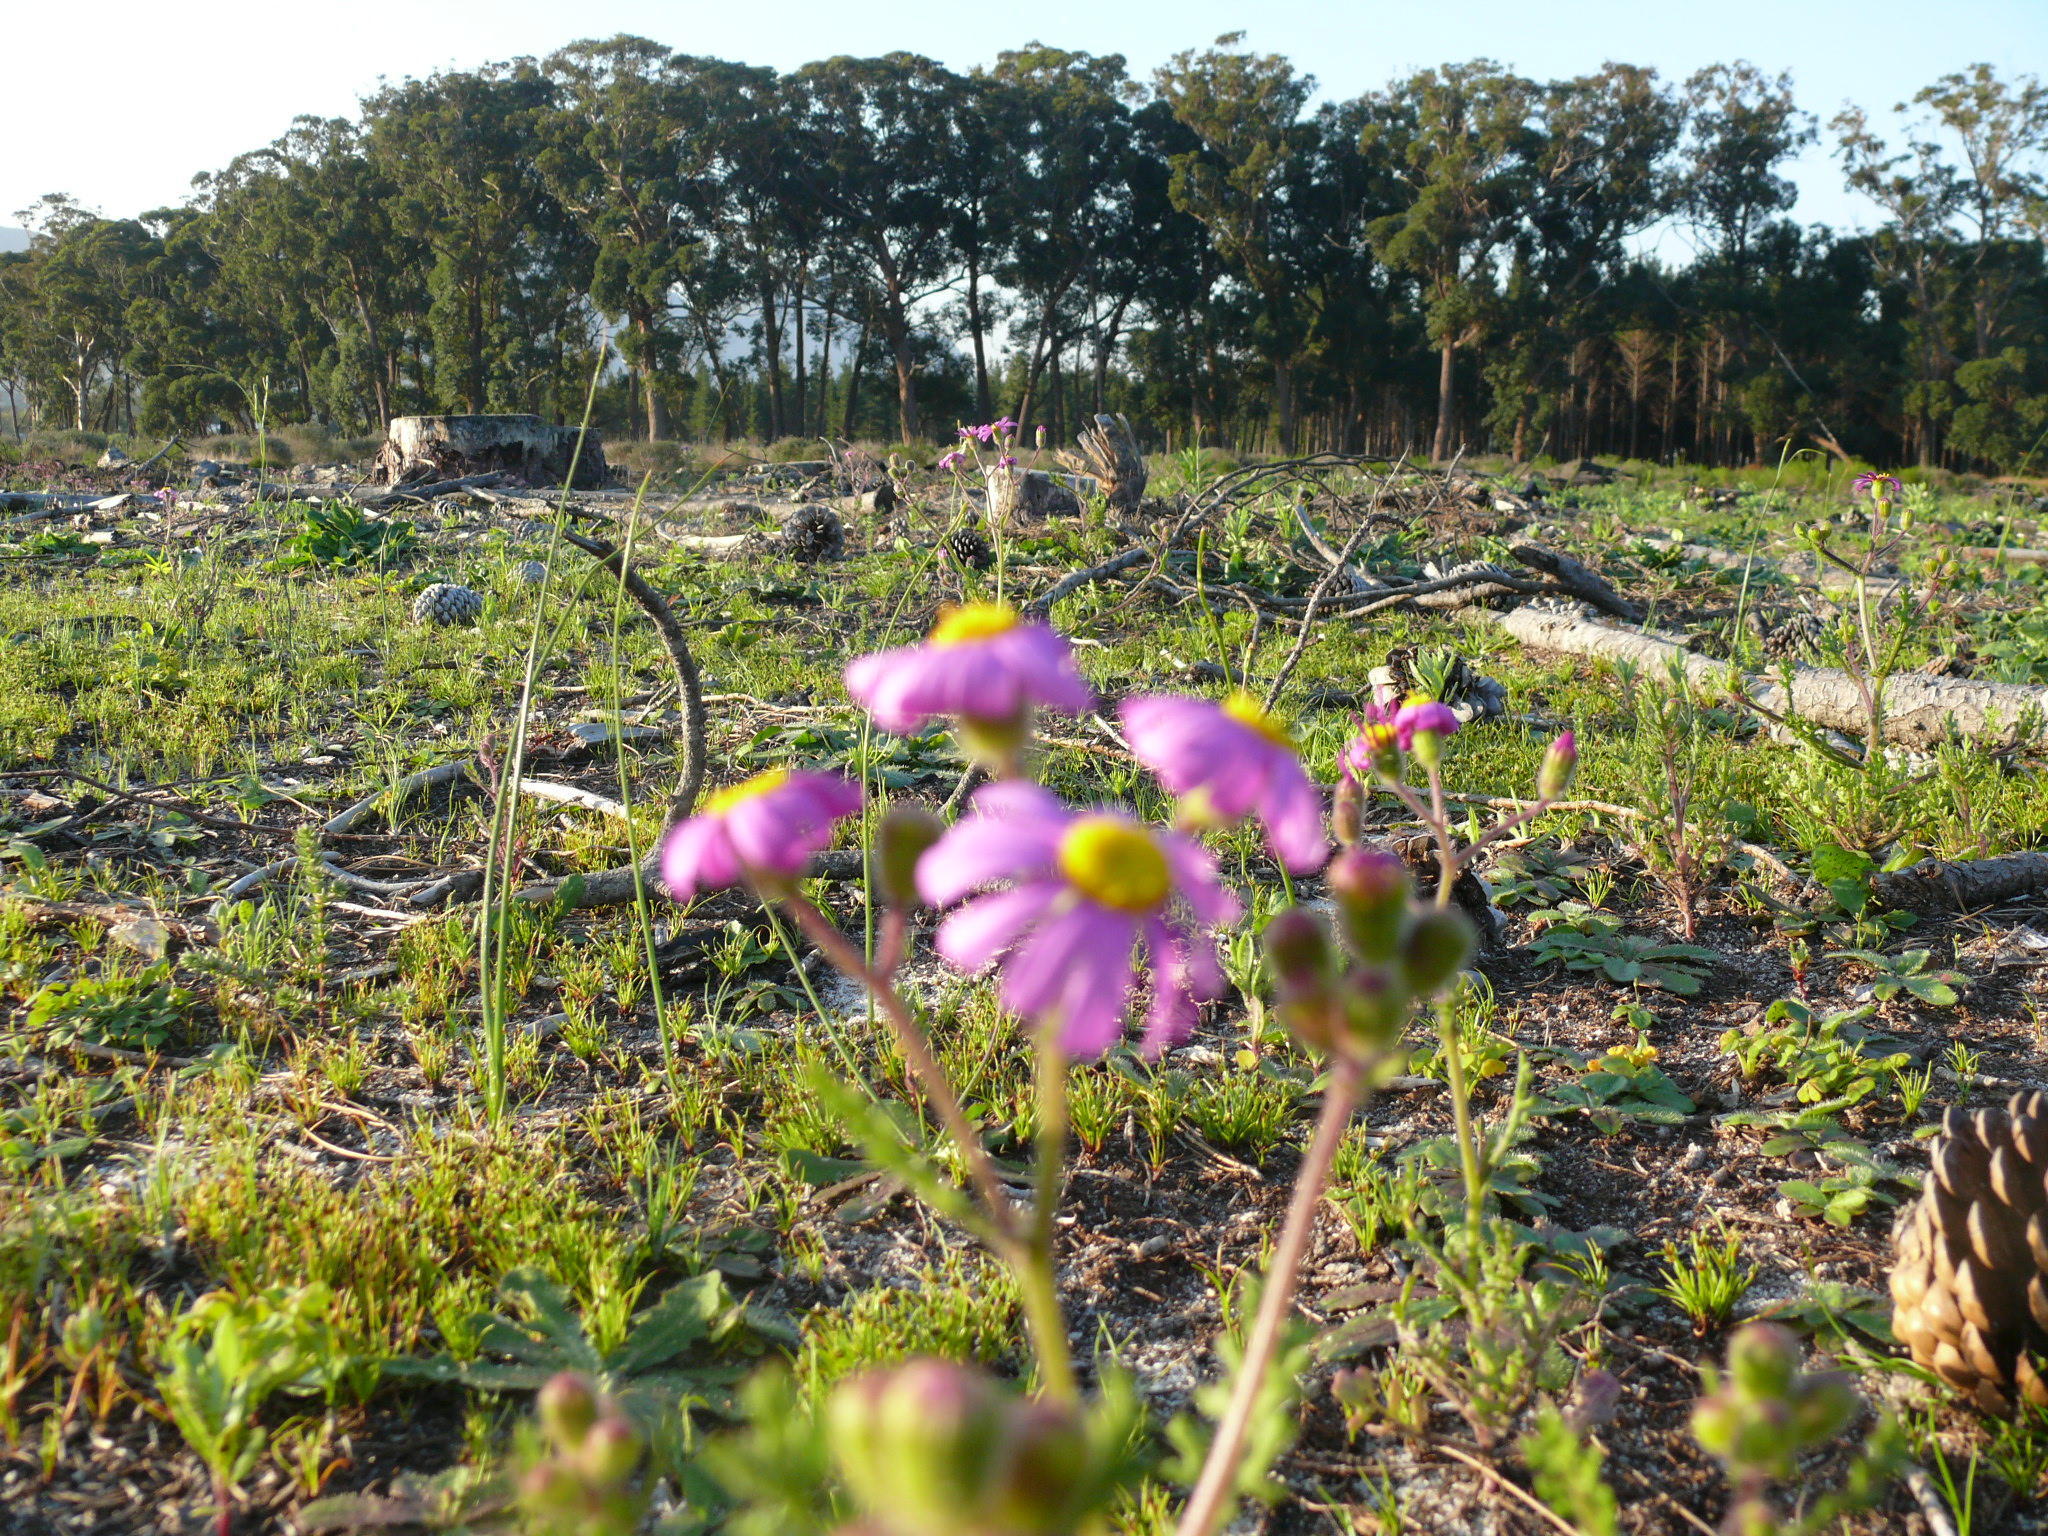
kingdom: Plantae
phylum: Tracheophyta
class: Magnoliopsida
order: Asterales
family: Asteraceae
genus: Senecio
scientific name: Senecio arenarius
